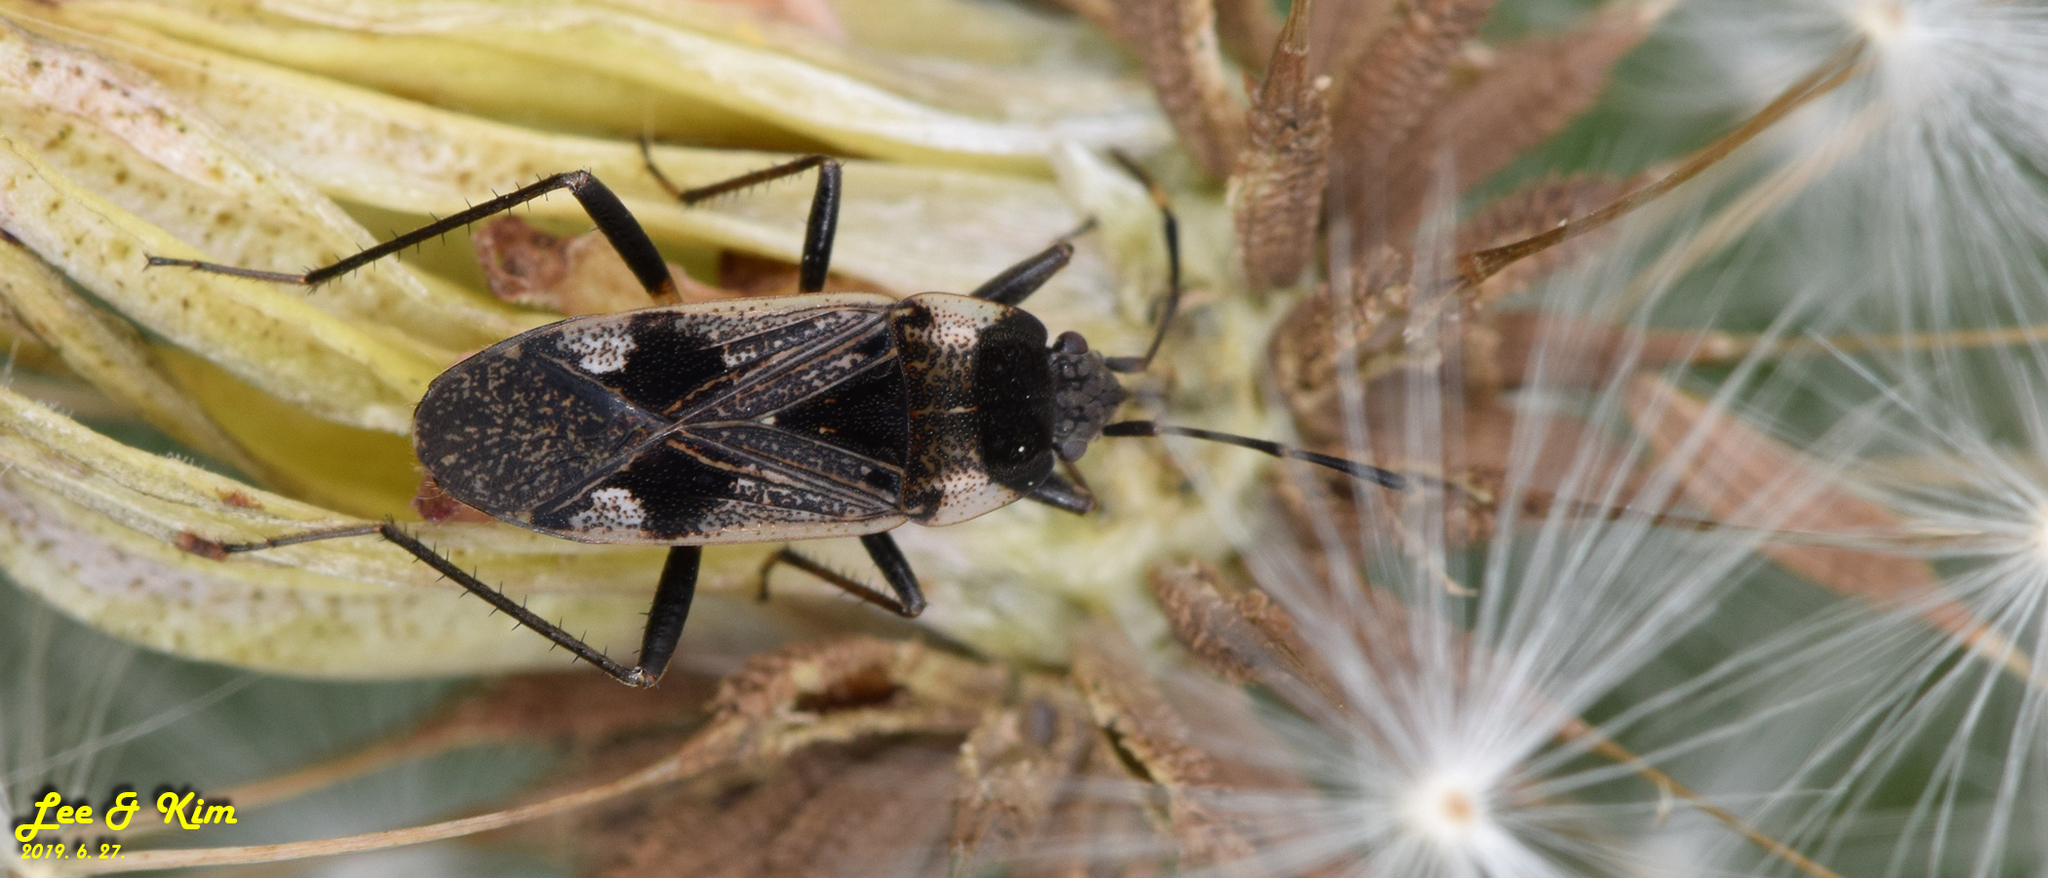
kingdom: Animalia
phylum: Arthropoda
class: Insecta
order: Hemiptera
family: Rhyparochromidae
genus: Panaorus
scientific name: Panaorus albomaculatus
